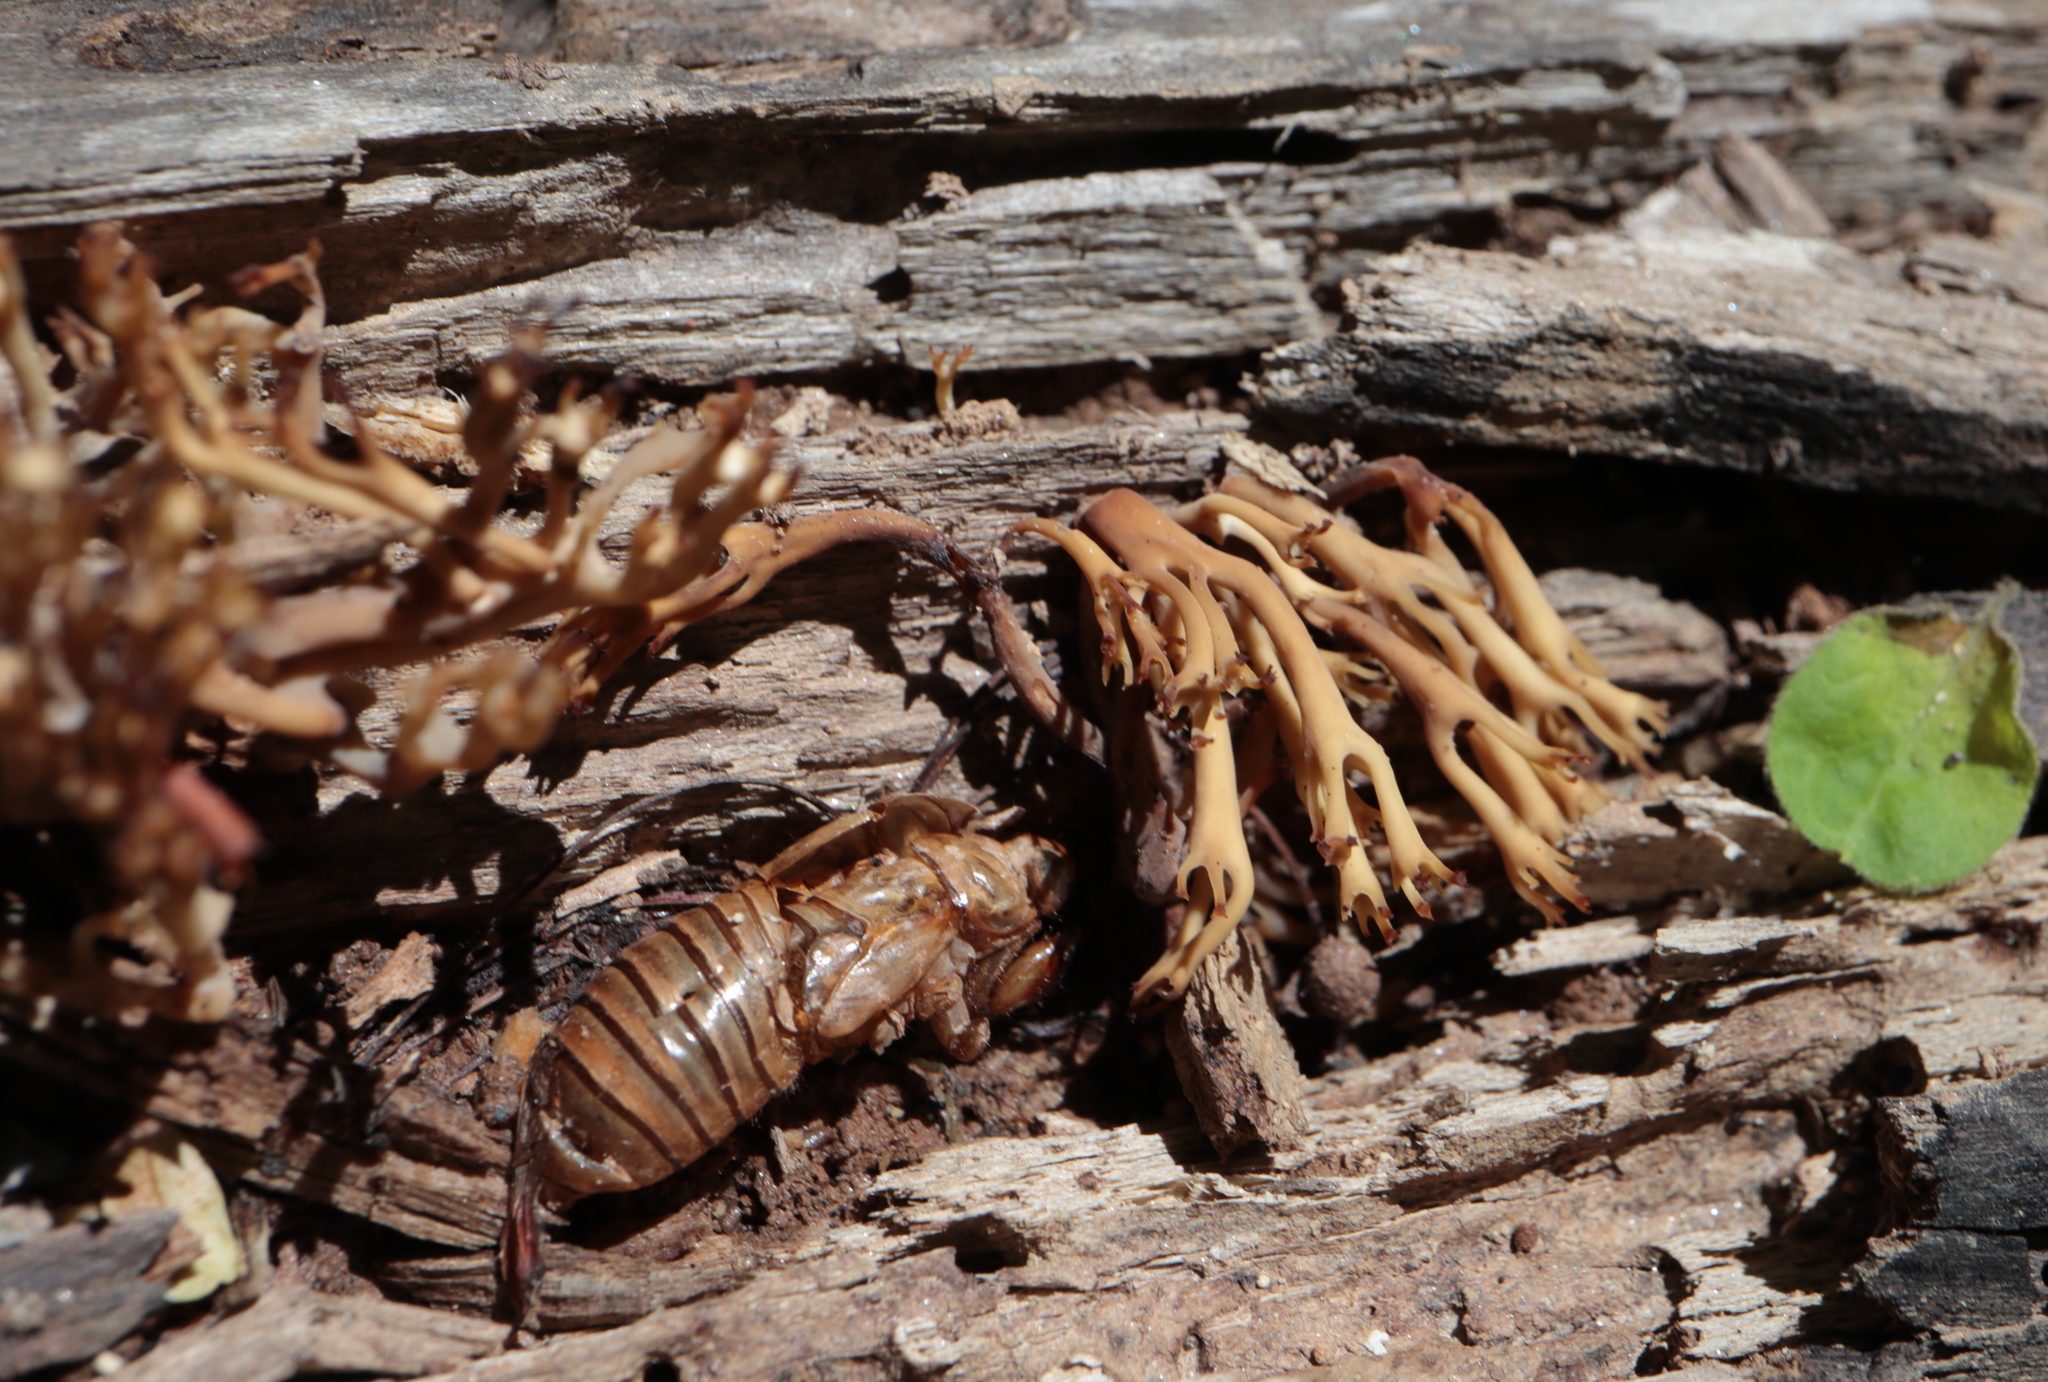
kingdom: Fungi
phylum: Basidiomycota
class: Agaricomycetes
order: Russulales
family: Auriscalpiaceae
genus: Artomyces
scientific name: Artomyces pyxidatus
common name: Crown-tipped coral fungus
